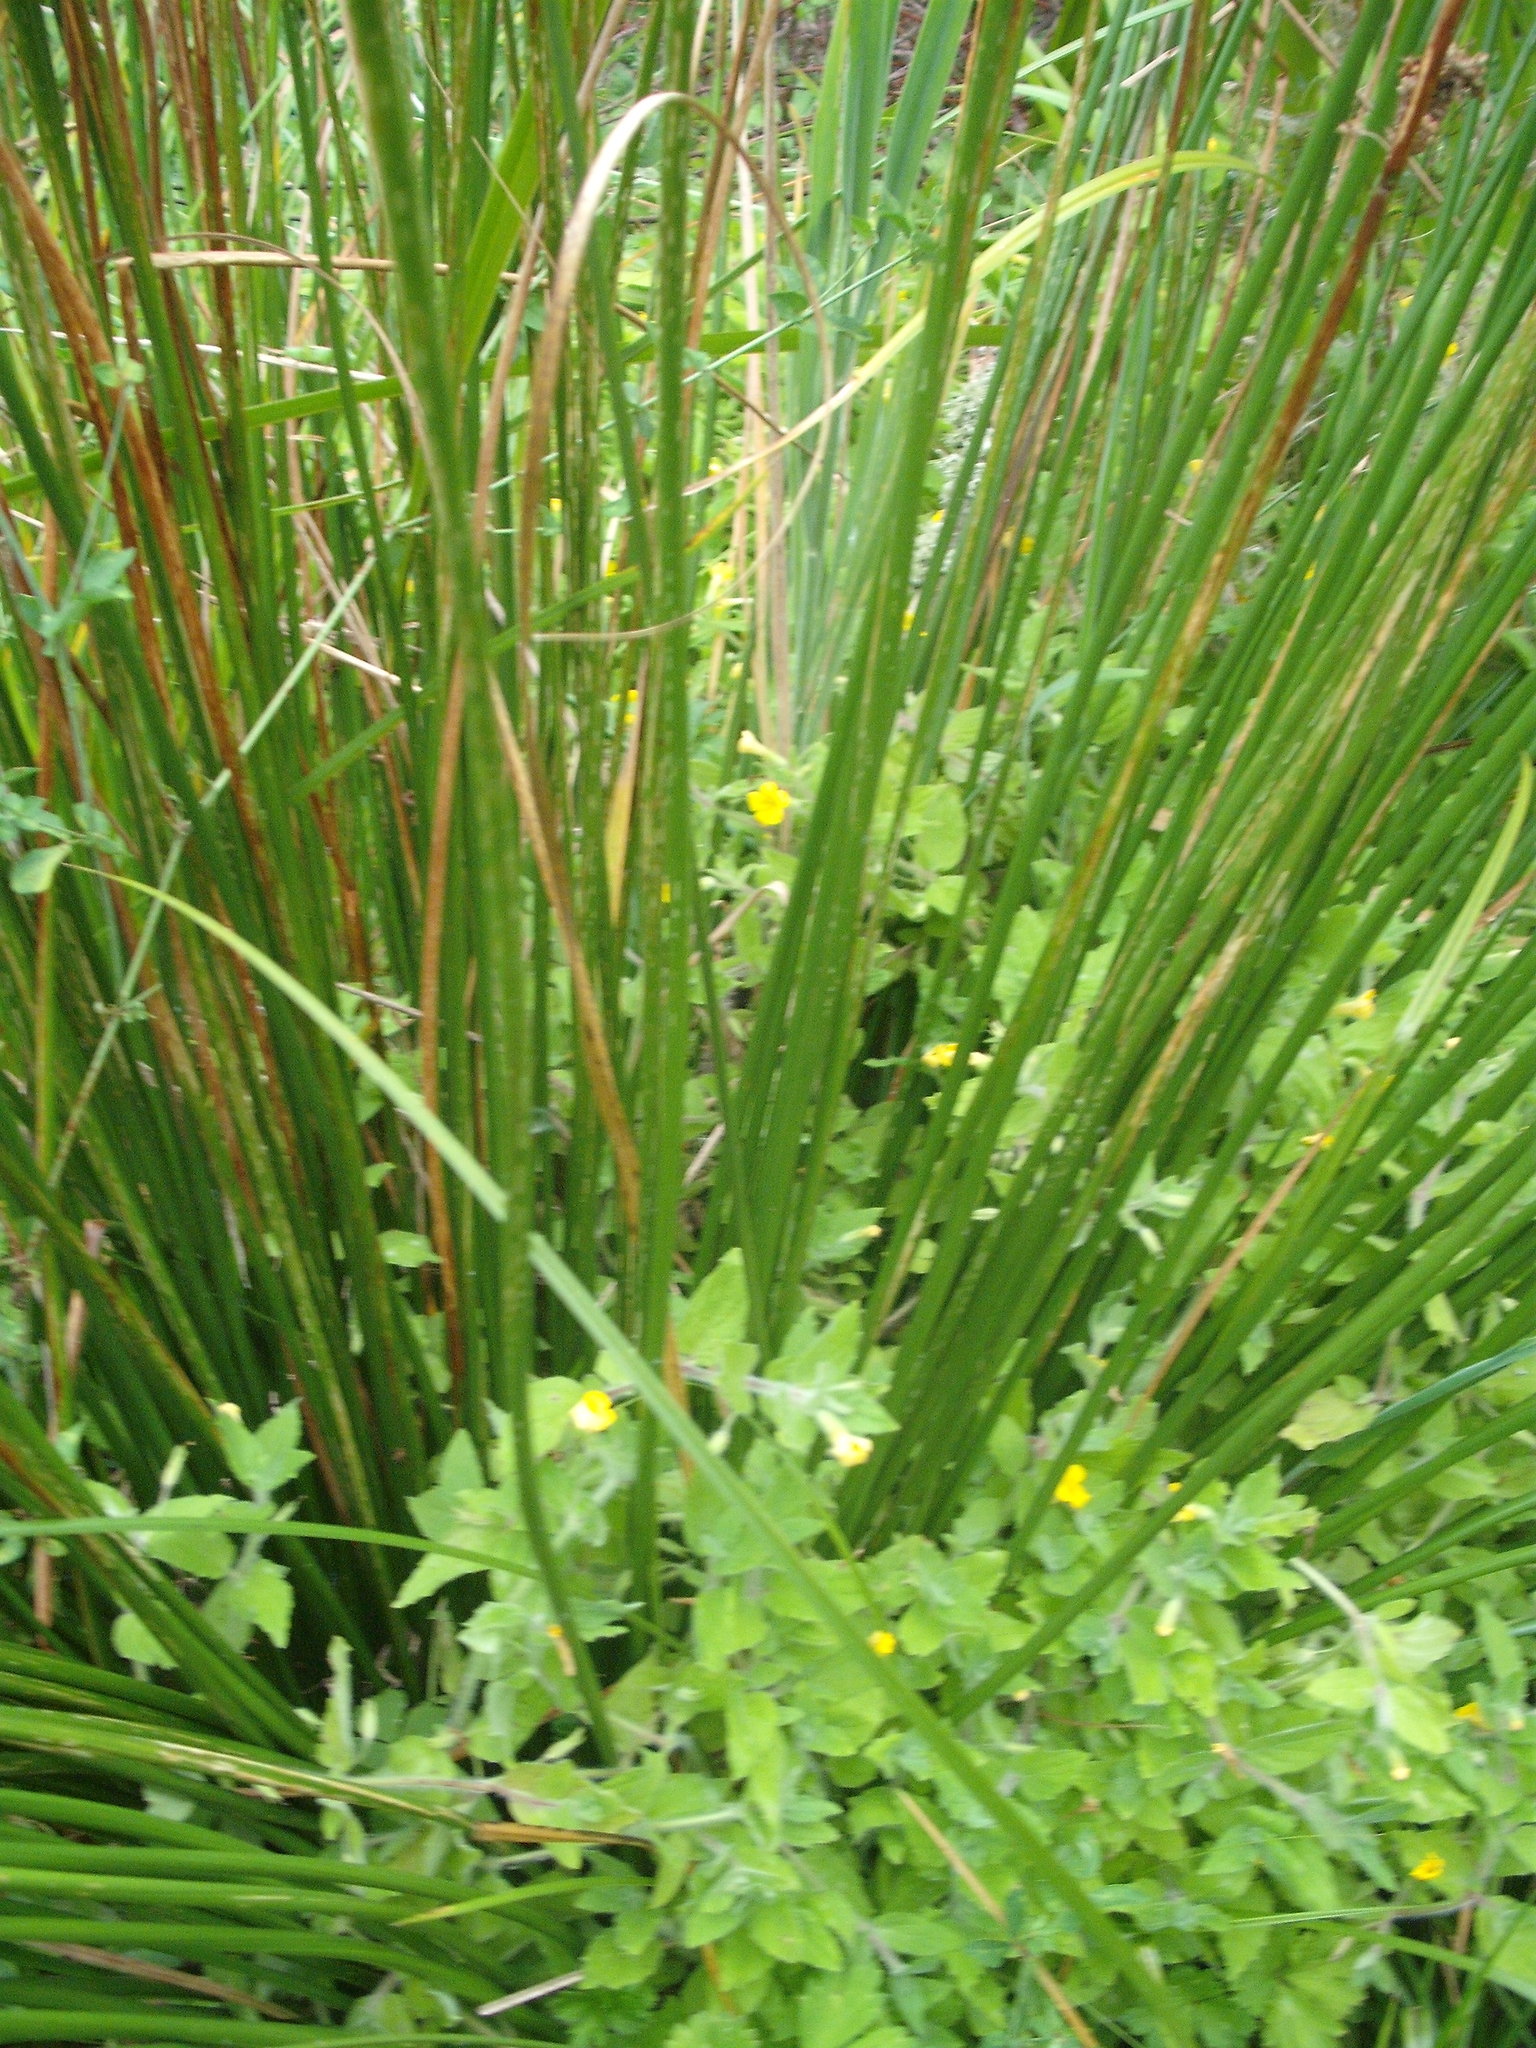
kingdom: Plantae
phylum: Tracheophyta
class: Magnoliopsida
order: Lamiales
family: Phrymaceae
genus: Erythranthe
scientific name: Erythranthe moschata
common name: Muskflower
